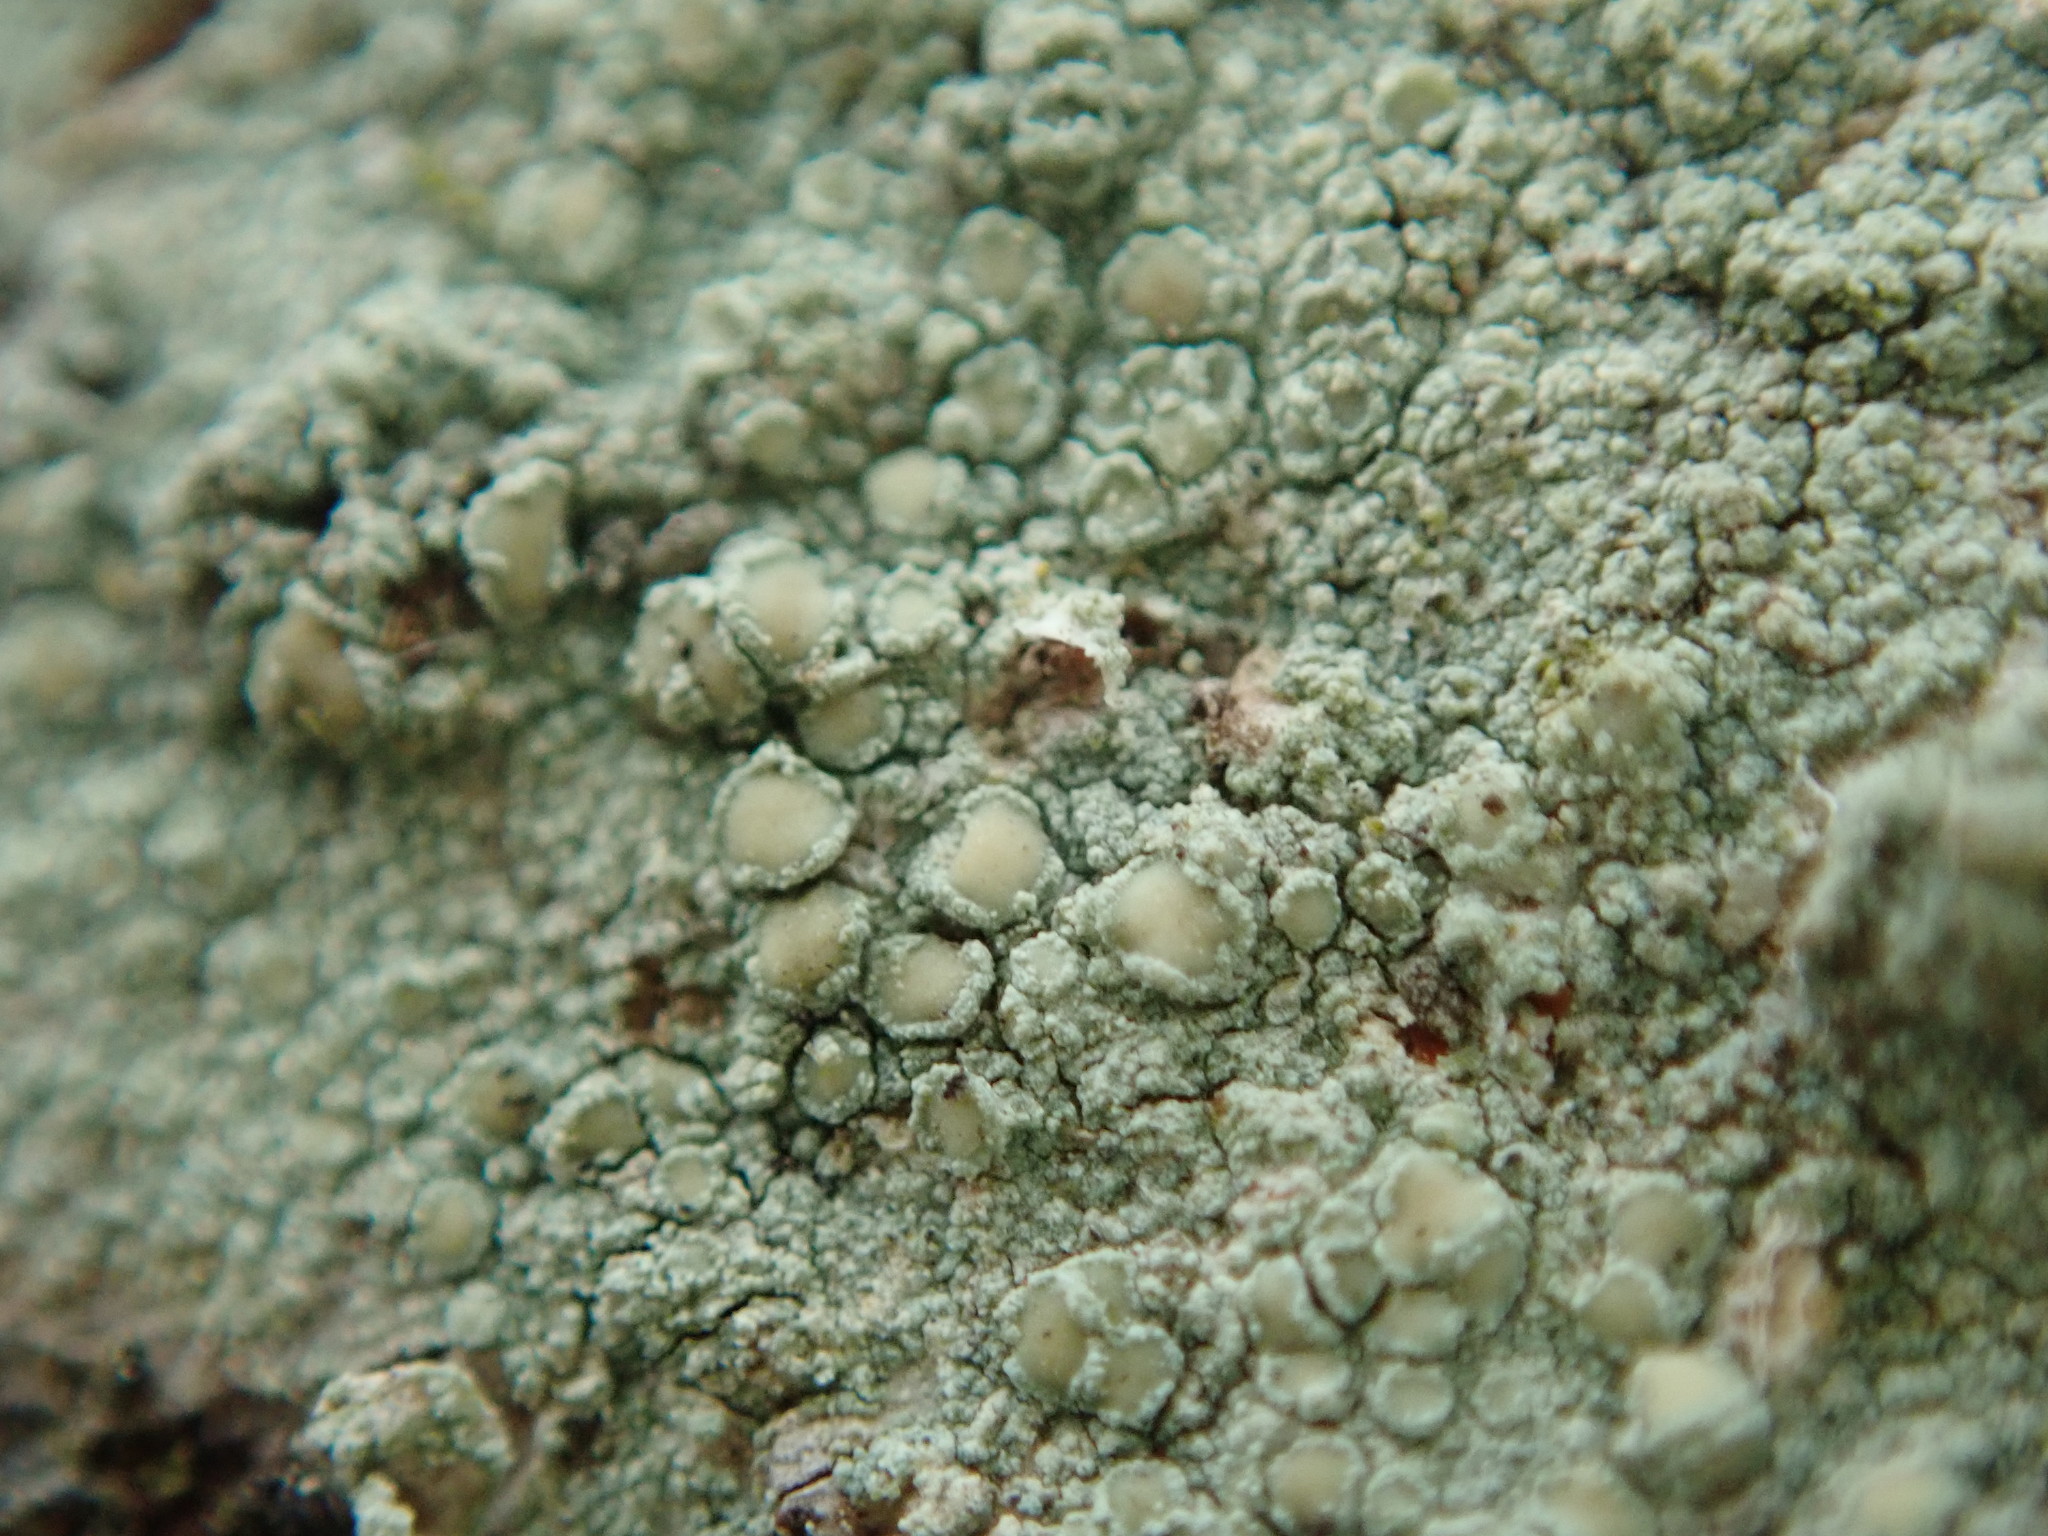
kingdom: Fungi
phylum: Ascomycota
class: Lecanoromycetes
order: Lecanorales
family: Lecanoraceae
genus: Lecanora
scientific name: Lecanora strobilina
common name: Mealy rim-lichen
